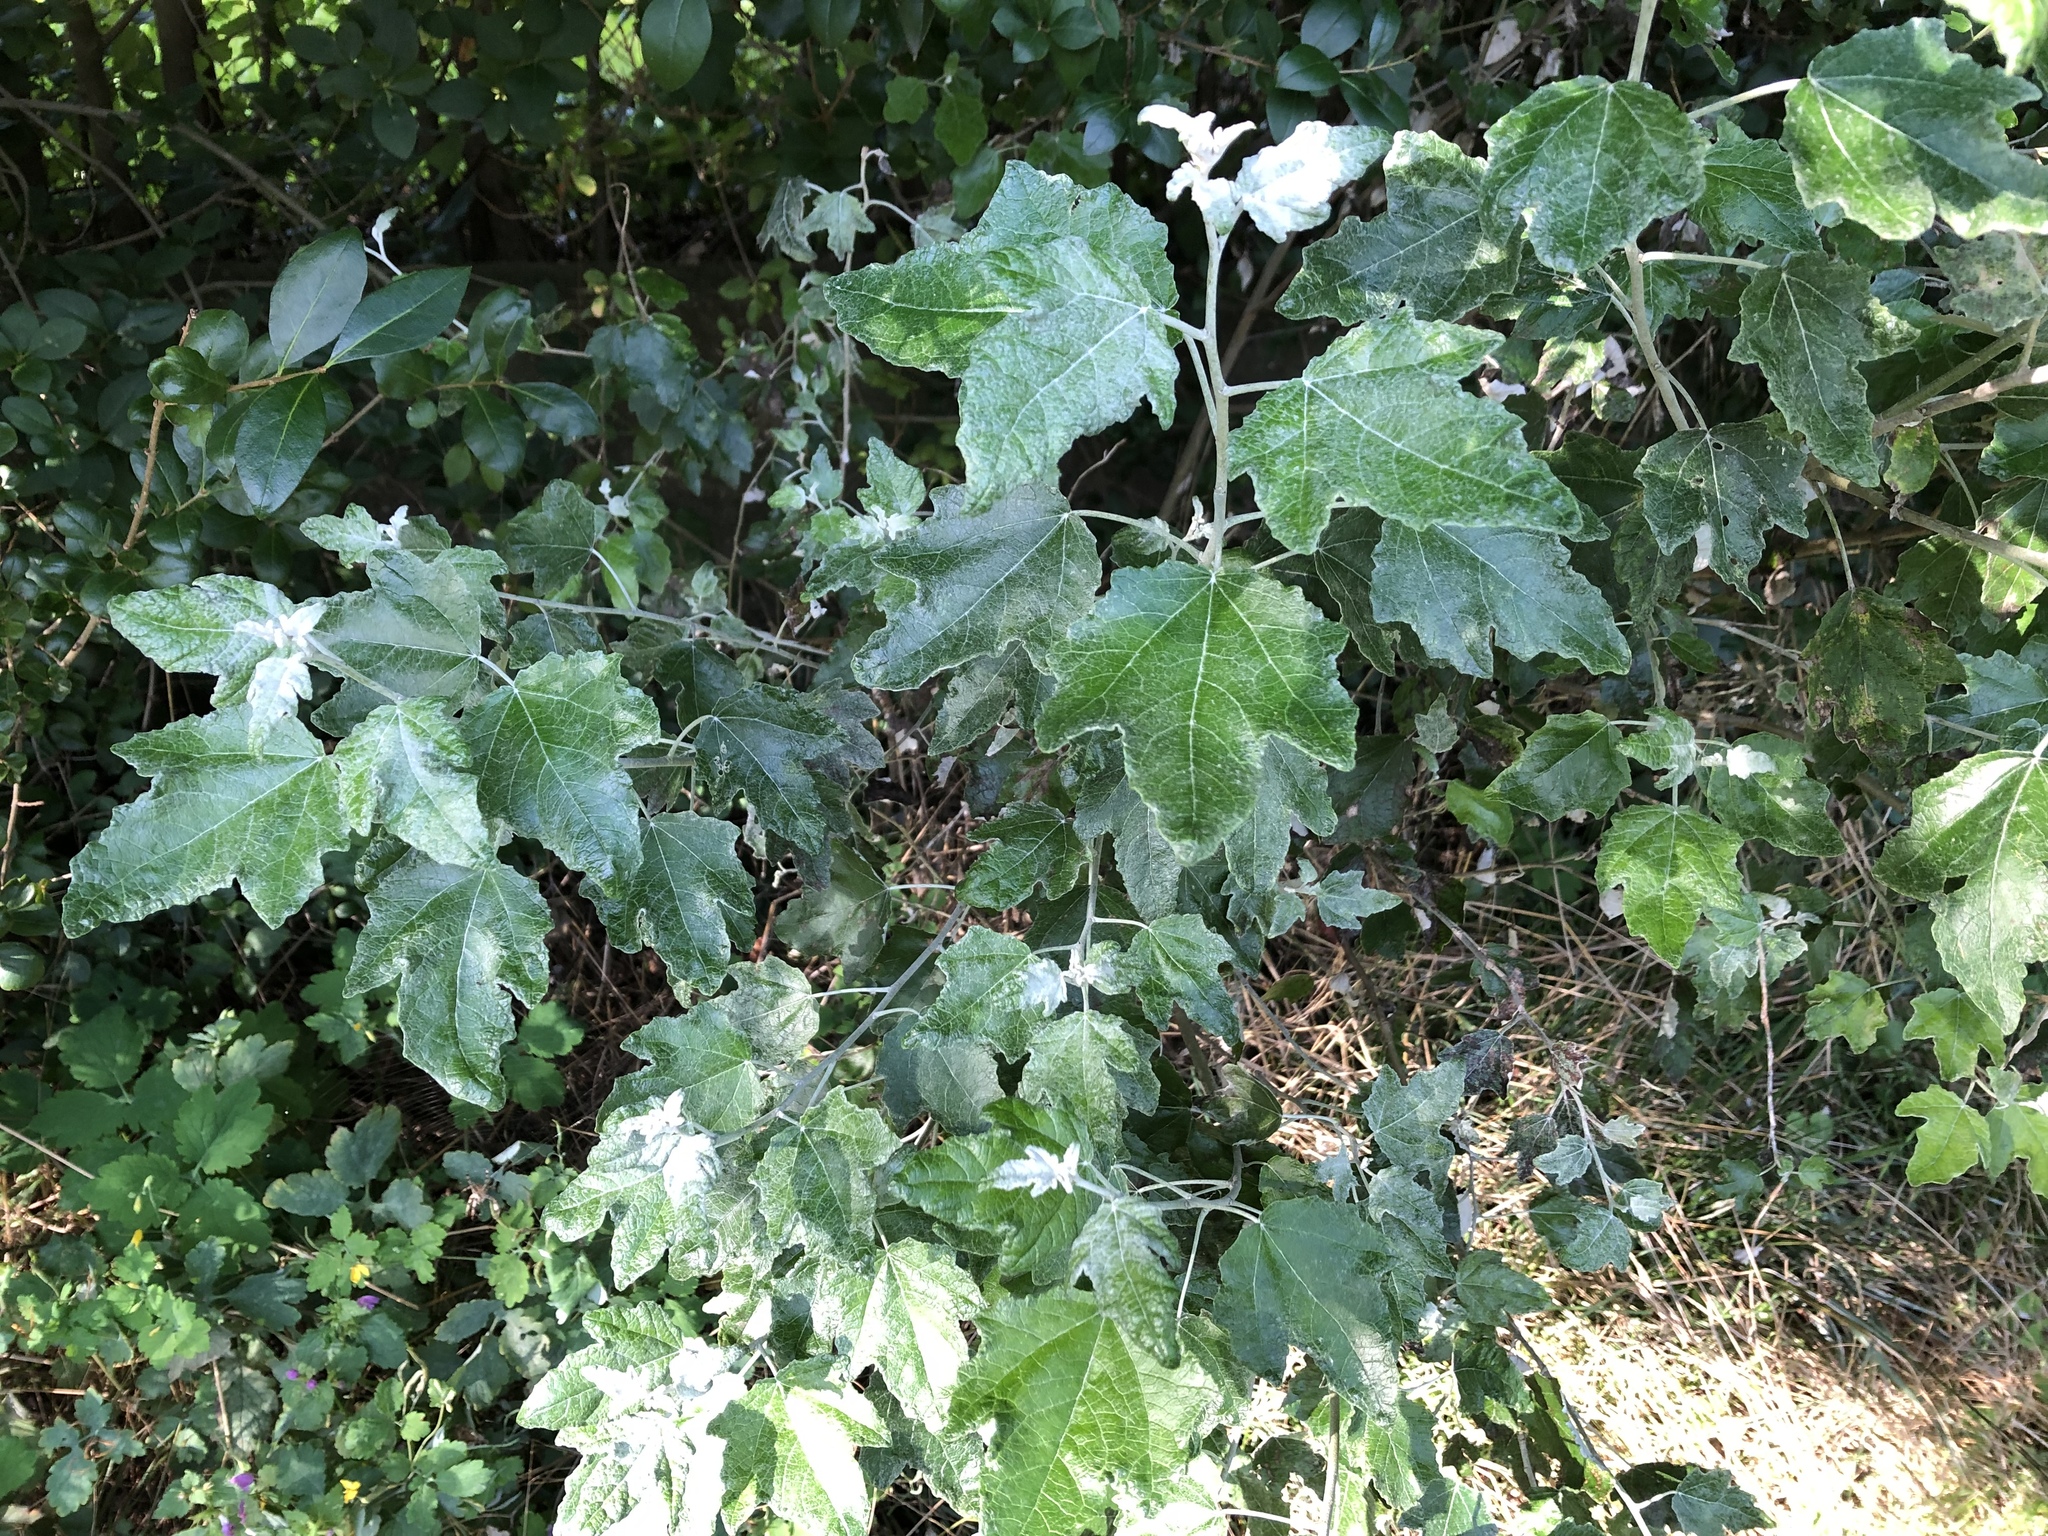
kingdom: Plantae
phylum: Tracheophyta
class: Magnoliopsida
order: Malpighiales
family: Salicaceae
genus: Populus
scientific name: Populus alba
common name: White poplar
